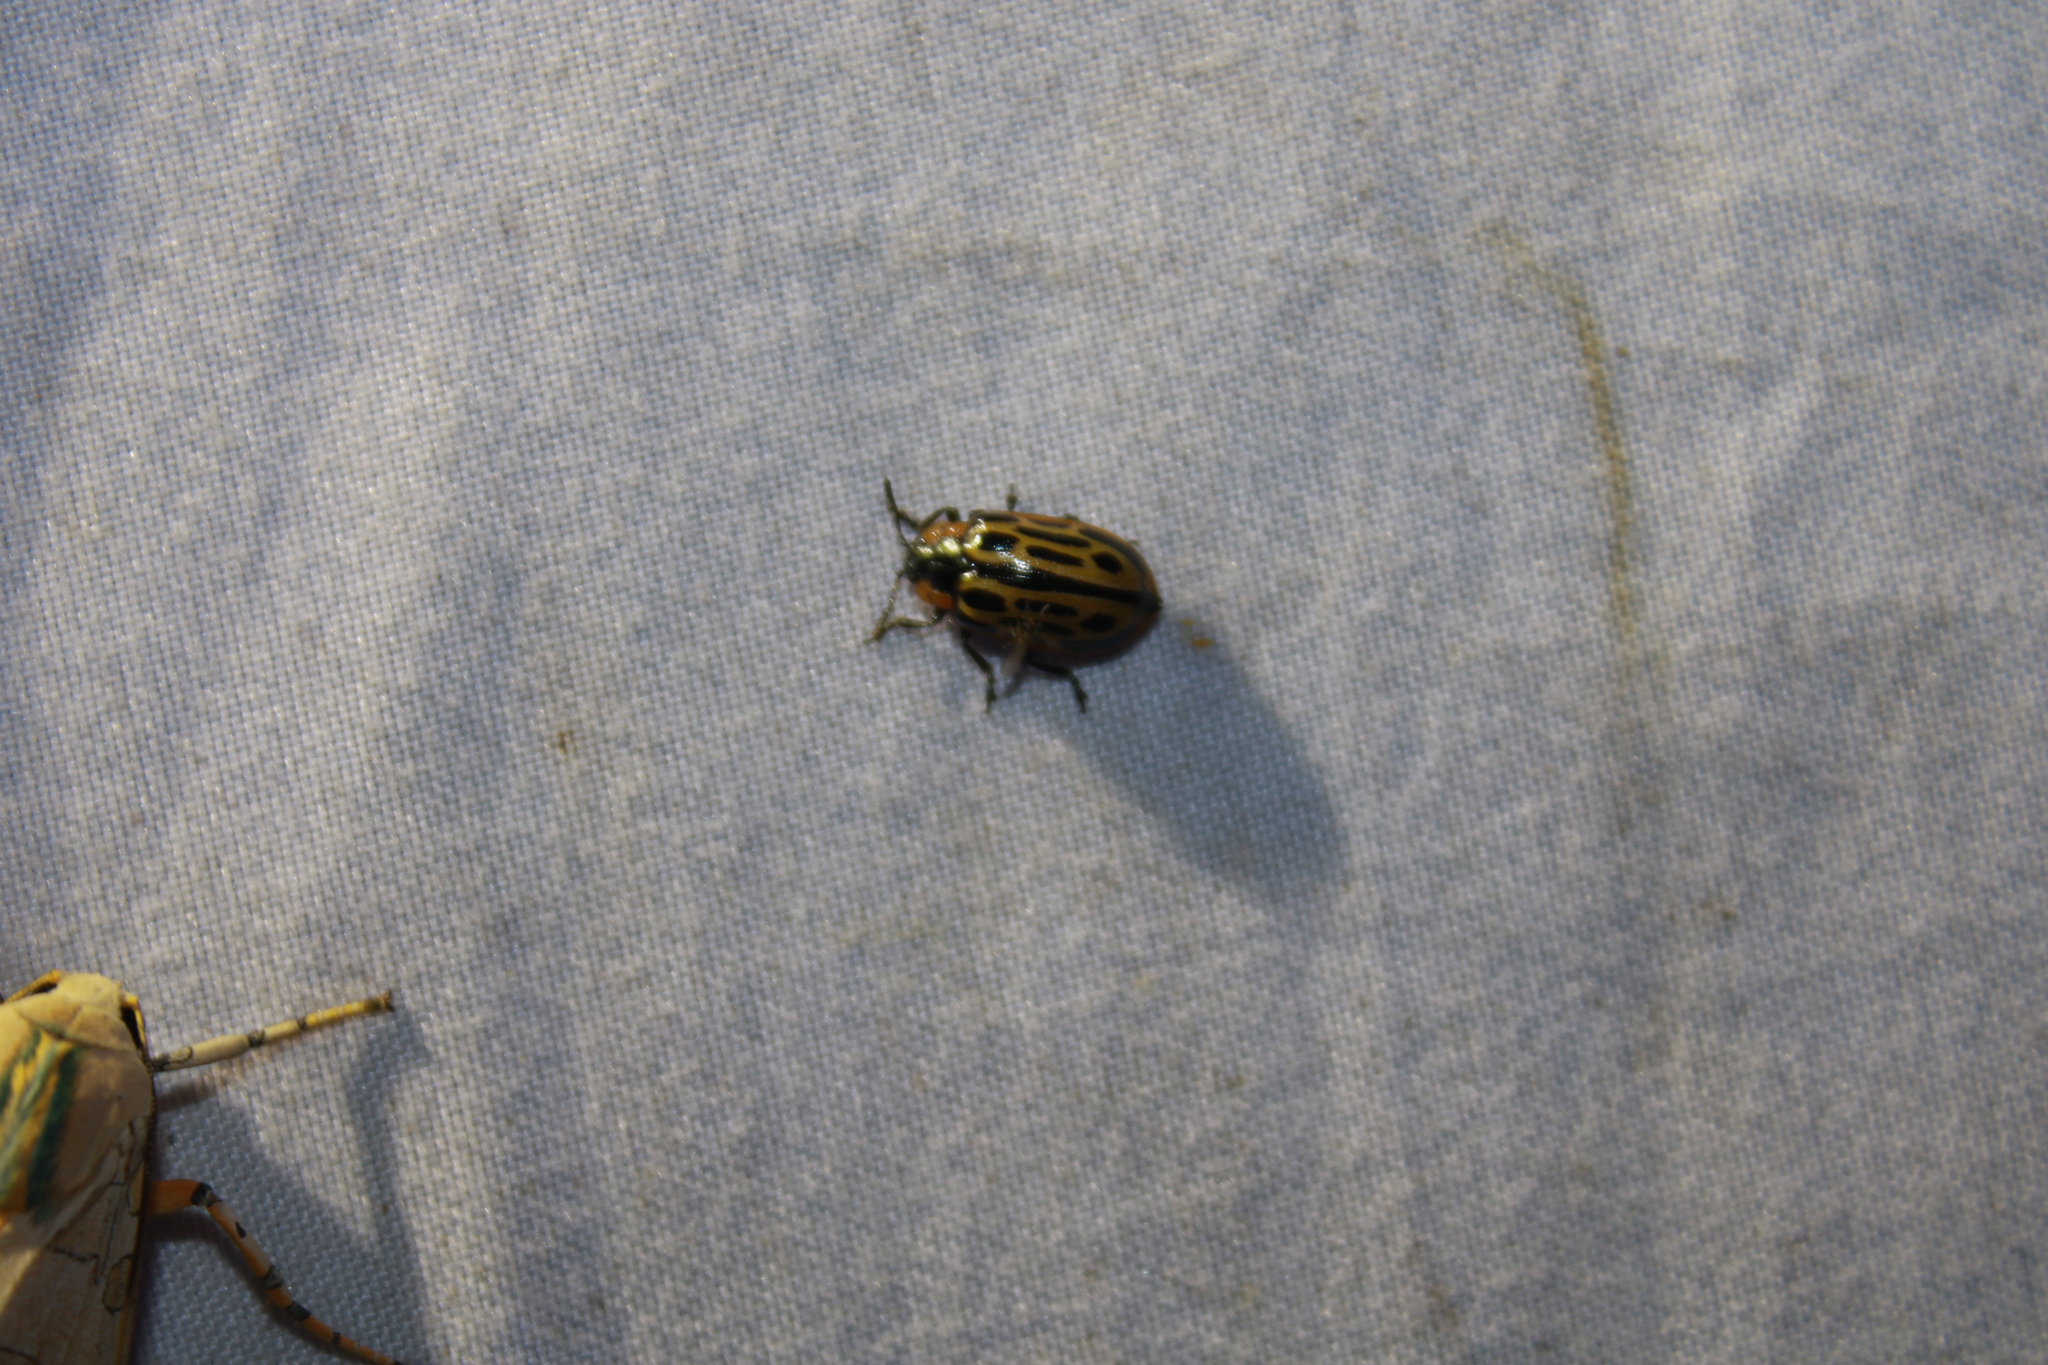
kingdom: Animalia
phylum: Arthropoda
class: Insecta
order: Coleoptera
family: Chrysomelidae
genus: Aethiopocassis
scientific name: Aethiopocassis scripta
